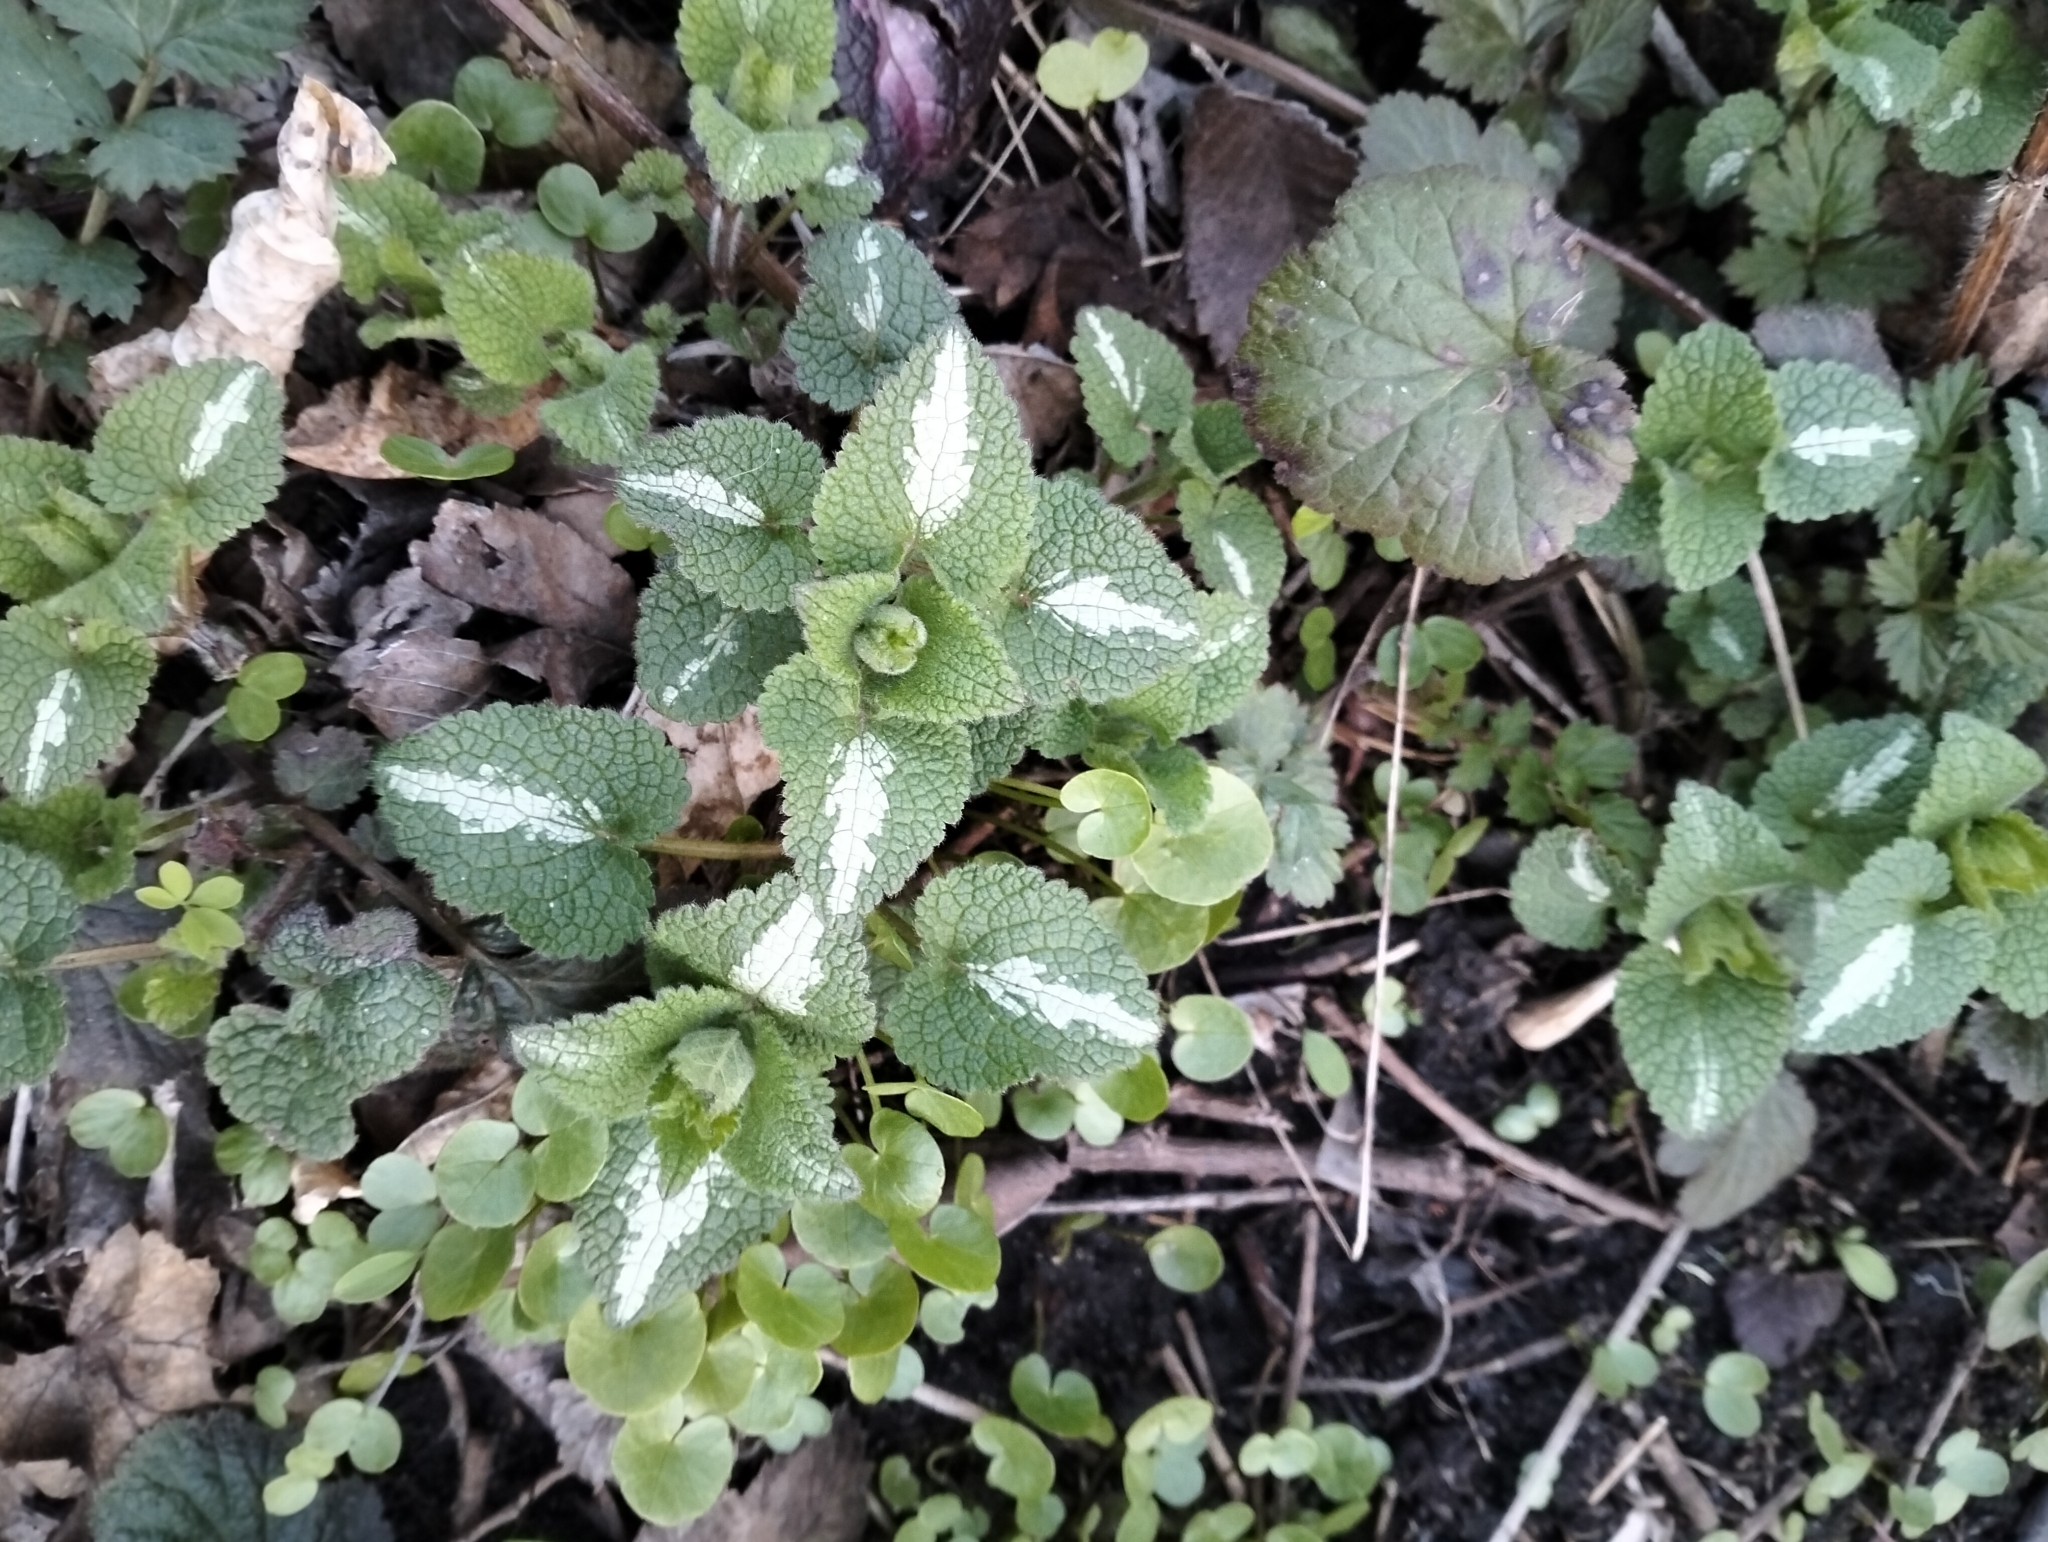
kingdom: Plantae
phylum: Tracheophyta
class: Magnoliopsida
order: Lamiales
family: Lamiaceae
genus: Lamium
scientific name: Lamium maculatum
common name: Spotted dead-nettle
